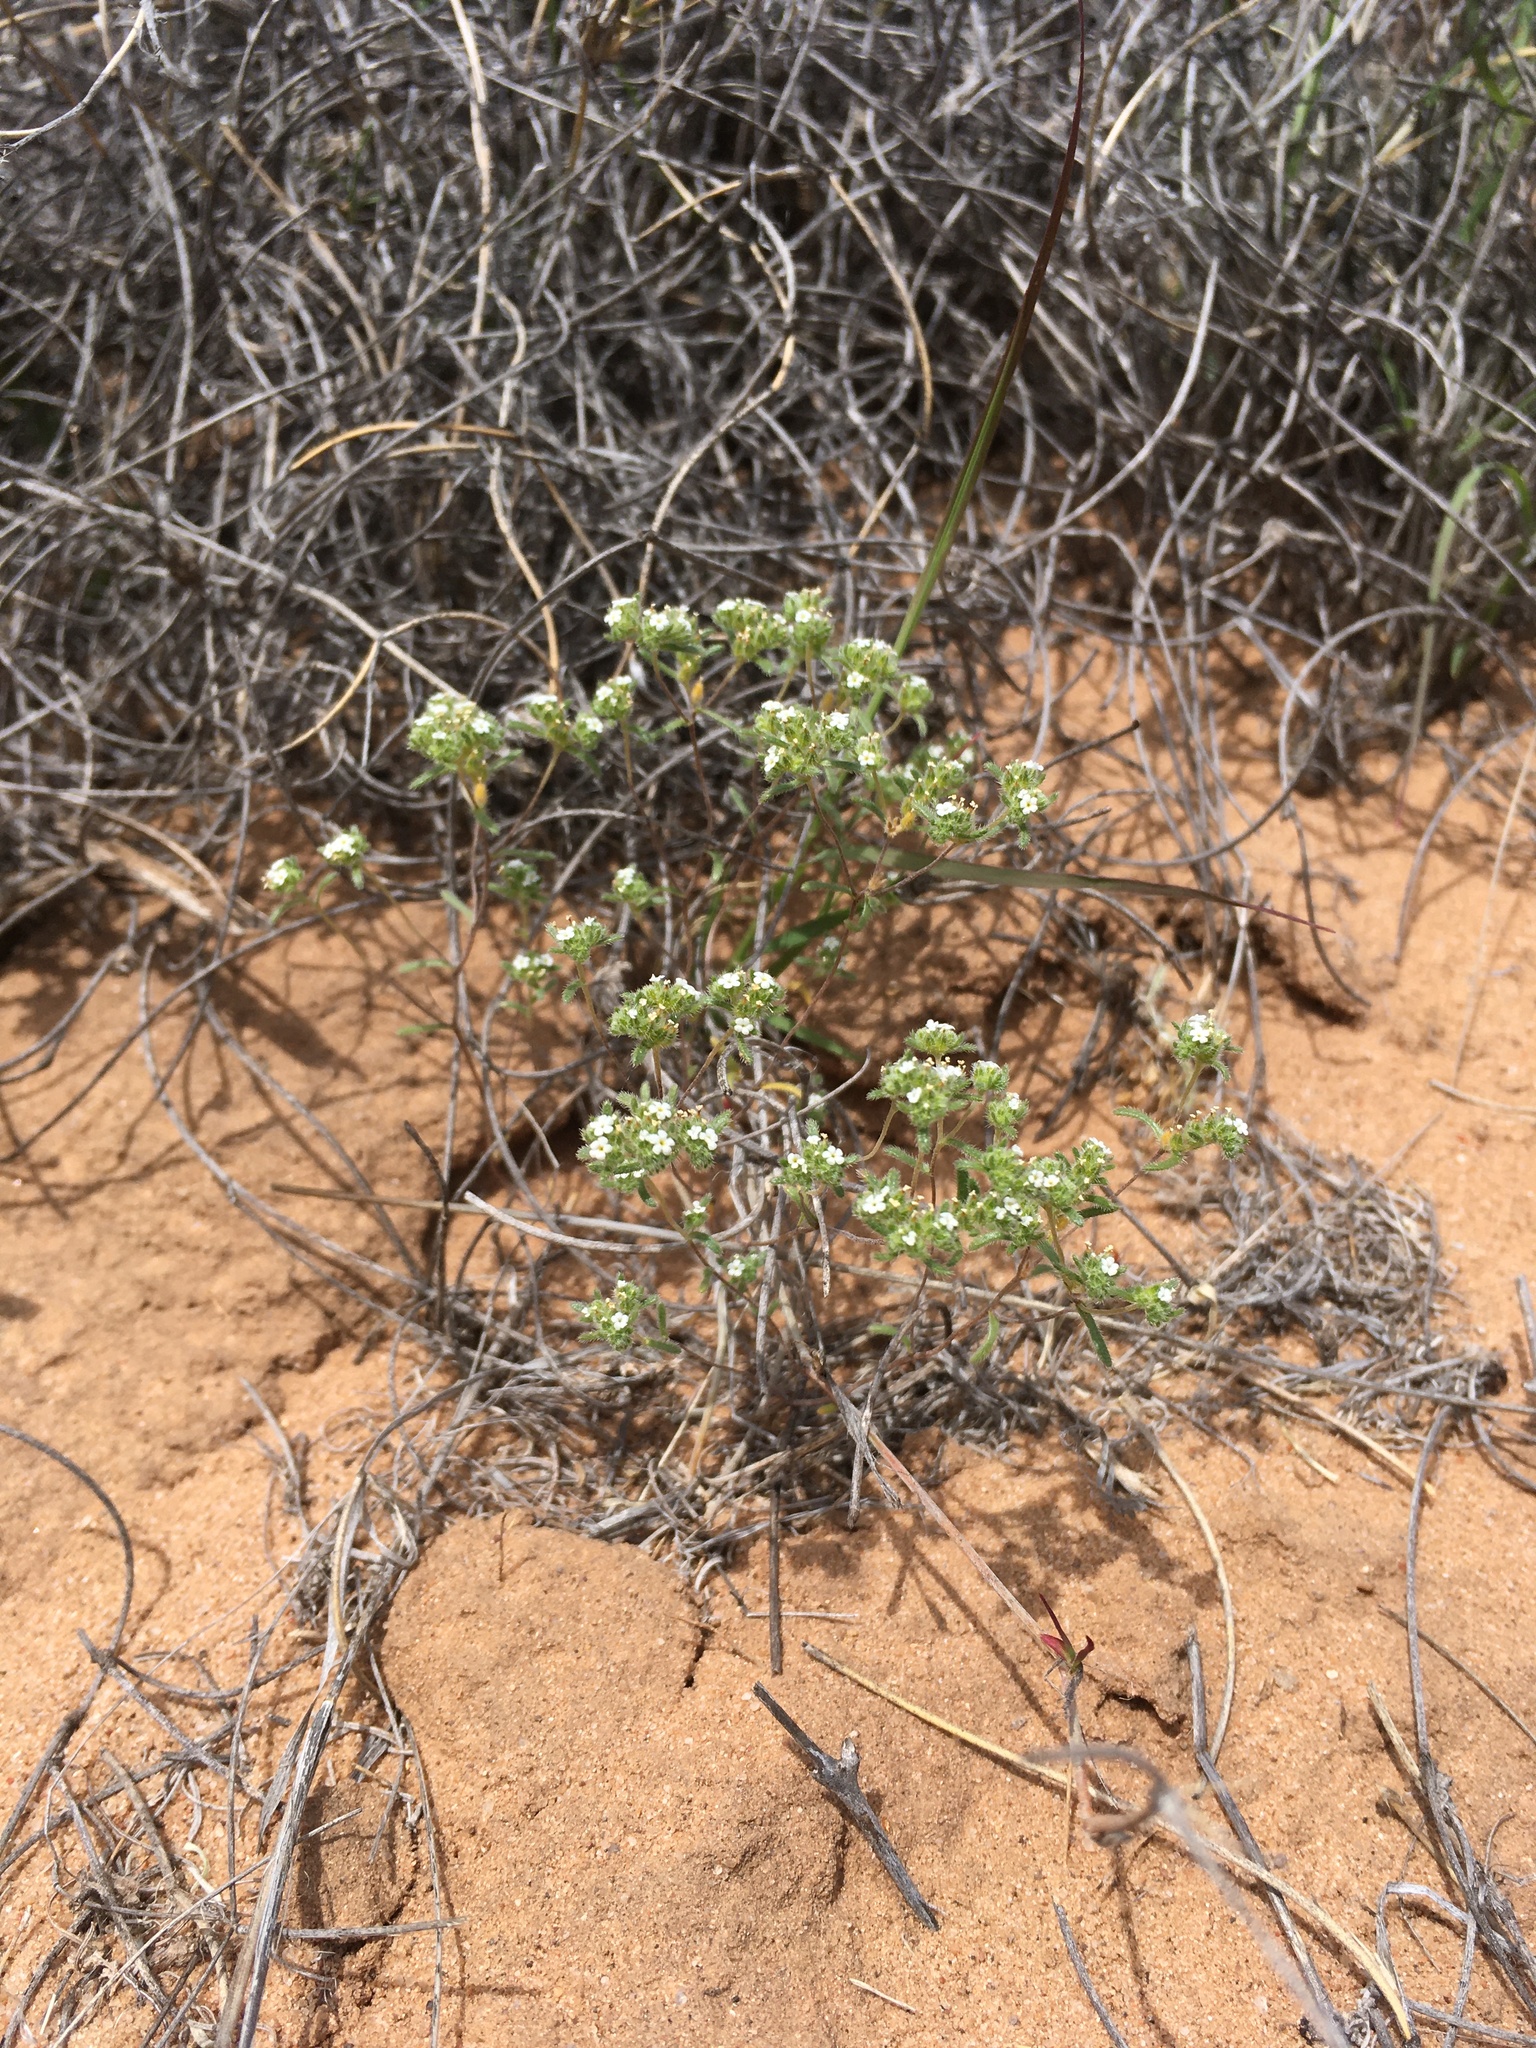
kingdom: Plantae
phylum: Tracheophyta
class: Magnoliopsida
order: Boraginales
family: Boraginaceae
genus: Eremocarya
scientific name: Eremocarya micrantha
